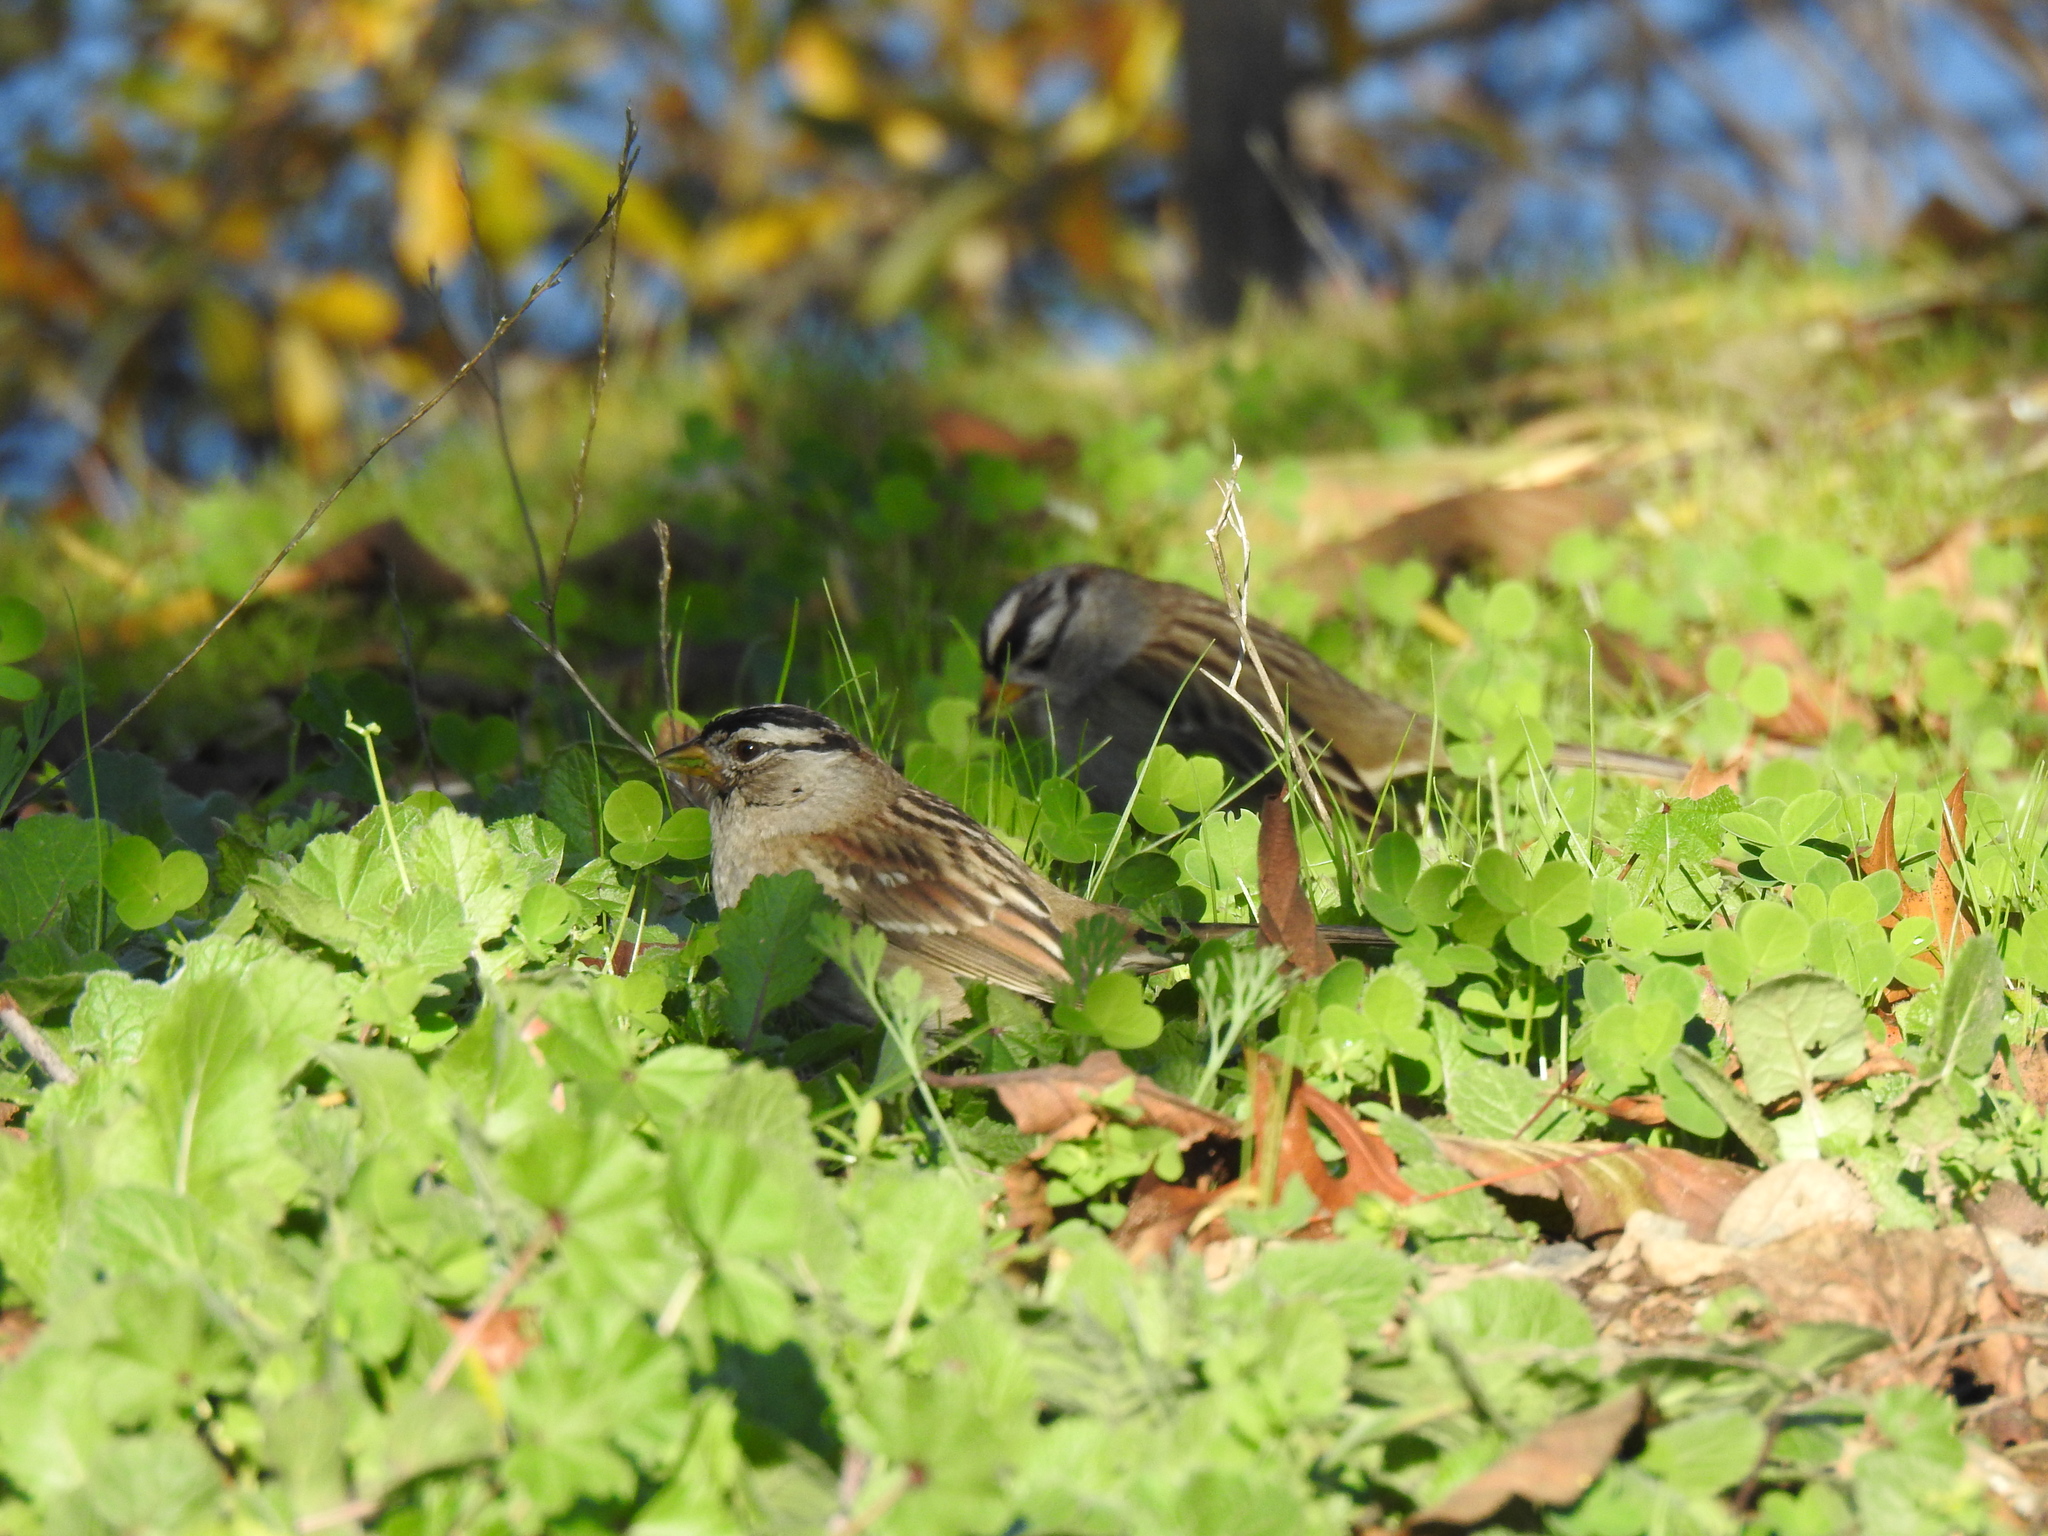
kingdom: Animalia
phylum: Chordata
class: Aves
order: Passeriformes
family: Passerellidae
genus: Zonotrichia
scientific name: Zonotrichia leucophrys
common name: White-crowned sparrow
